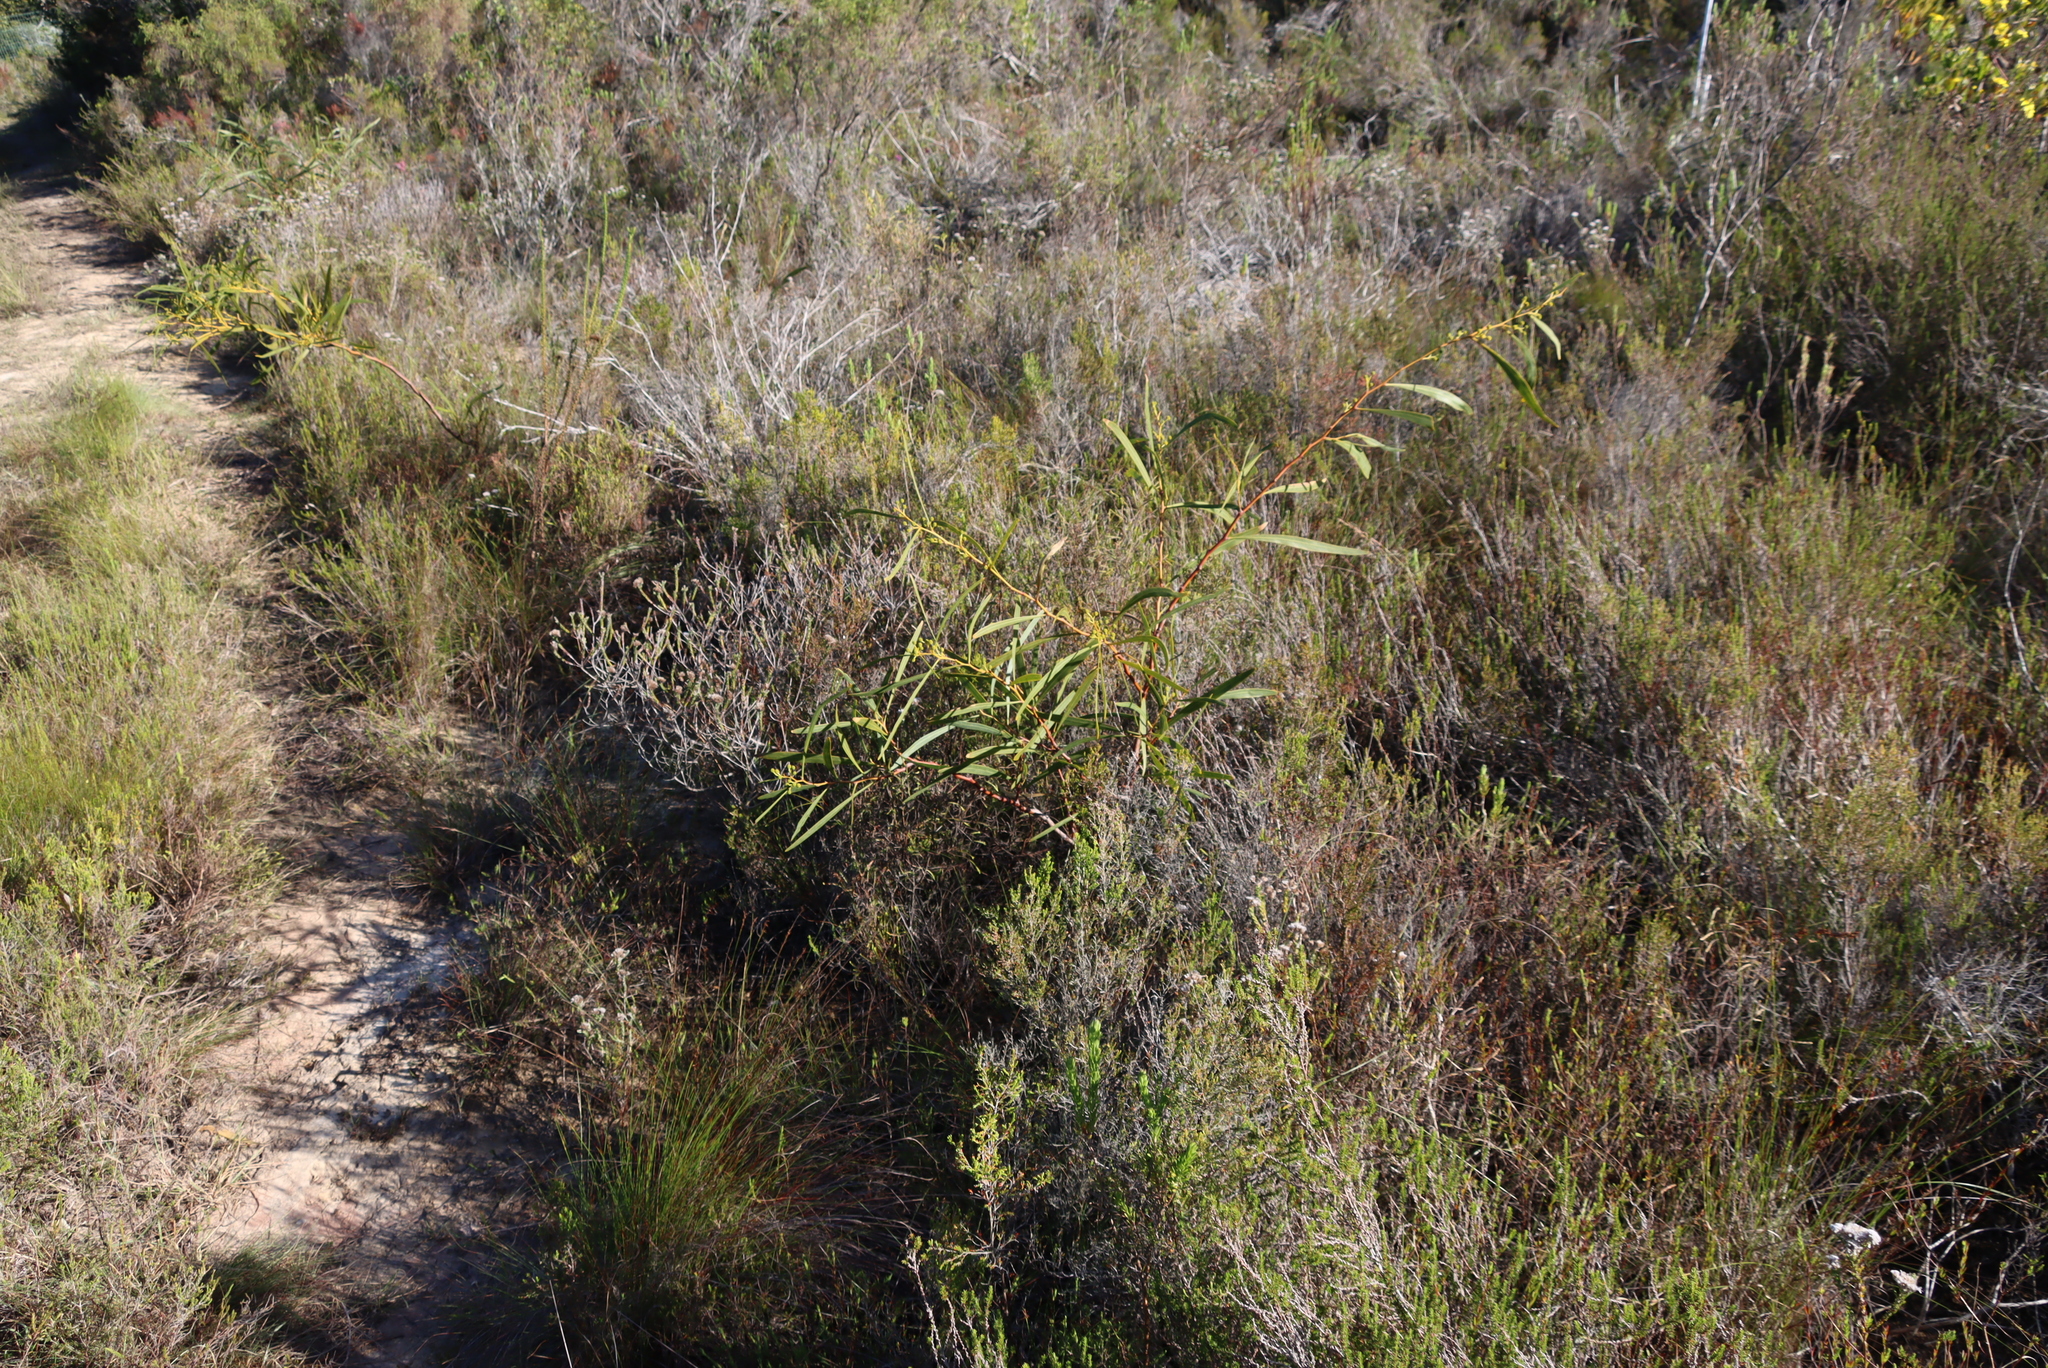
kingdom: Plantae
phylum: Tracheophyta
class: Magnoliopsida
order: Fabales
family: Fabaceae
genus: Acacia
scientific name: Acacia saligna
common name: Orange wattle
